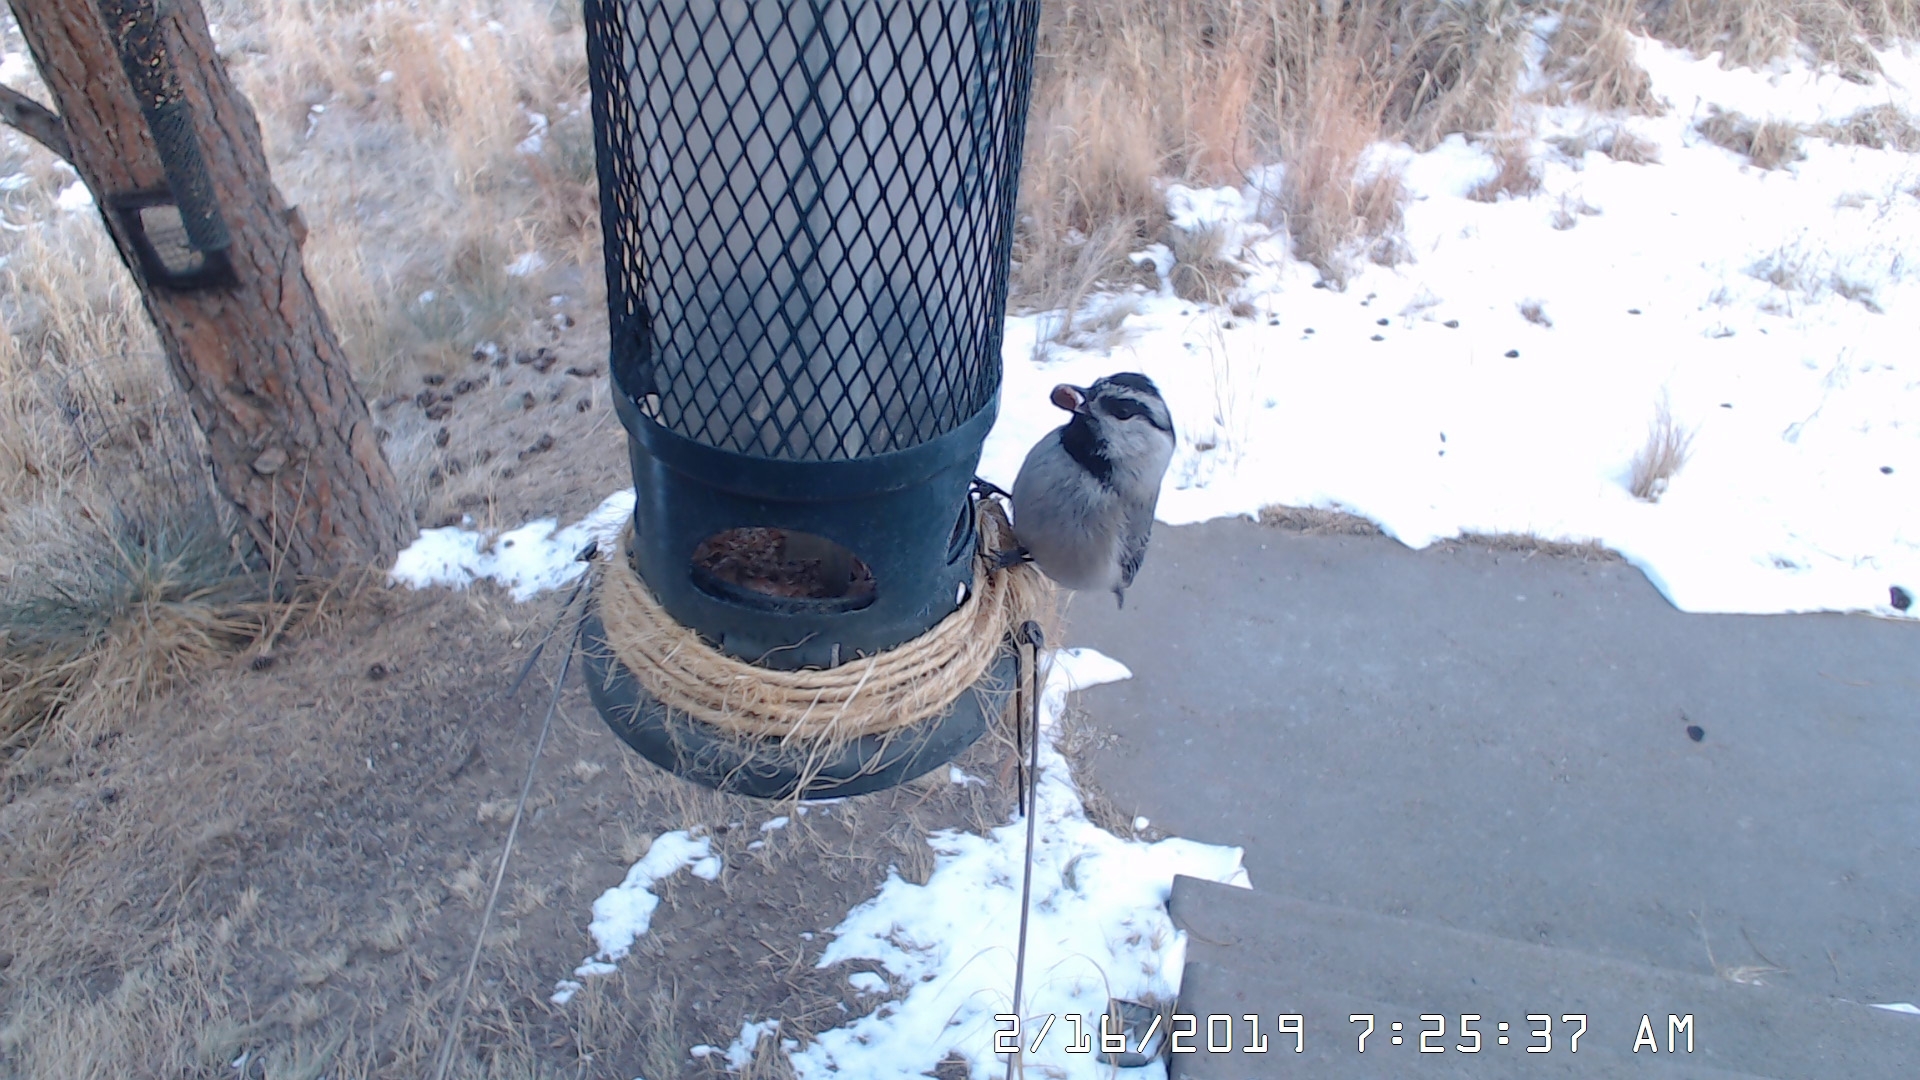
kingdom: Animalia
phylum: Chordata
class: Aves
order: Passeriformes
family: Paridae
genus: Poecile
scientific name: Poecile gambeli
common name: Mountain chickadee
